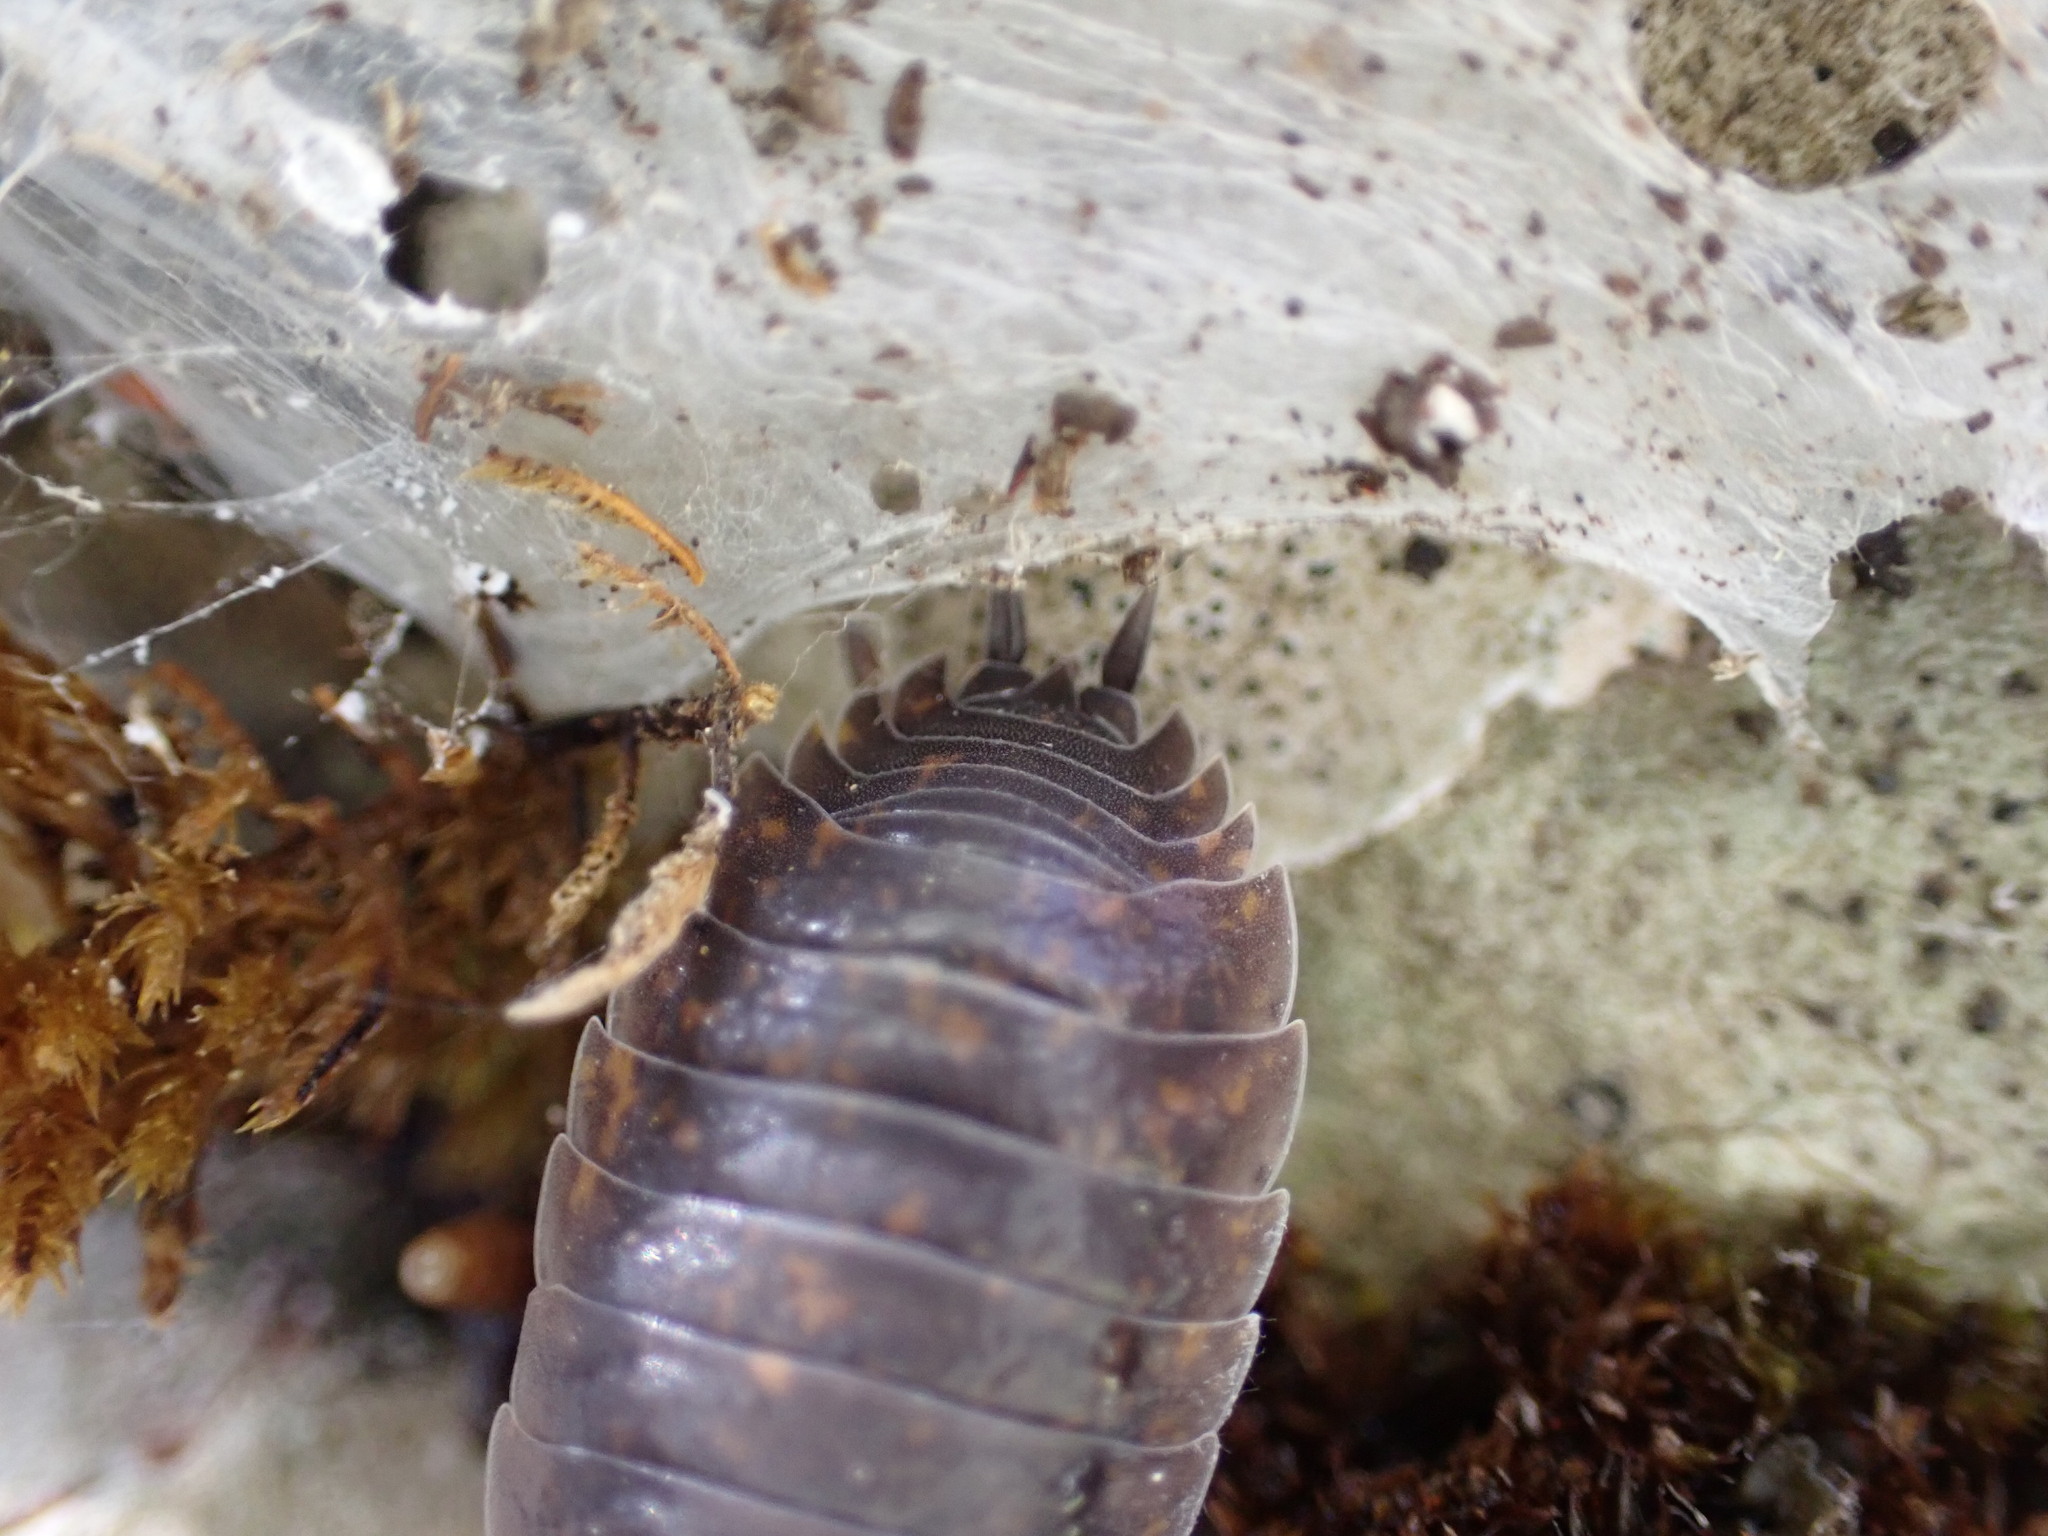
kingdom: Animalia
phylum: Arthropoda
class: Malacostraca
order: Isopoda
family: Porcellionidae
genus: Porcellio
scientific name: Porcellio orarum
